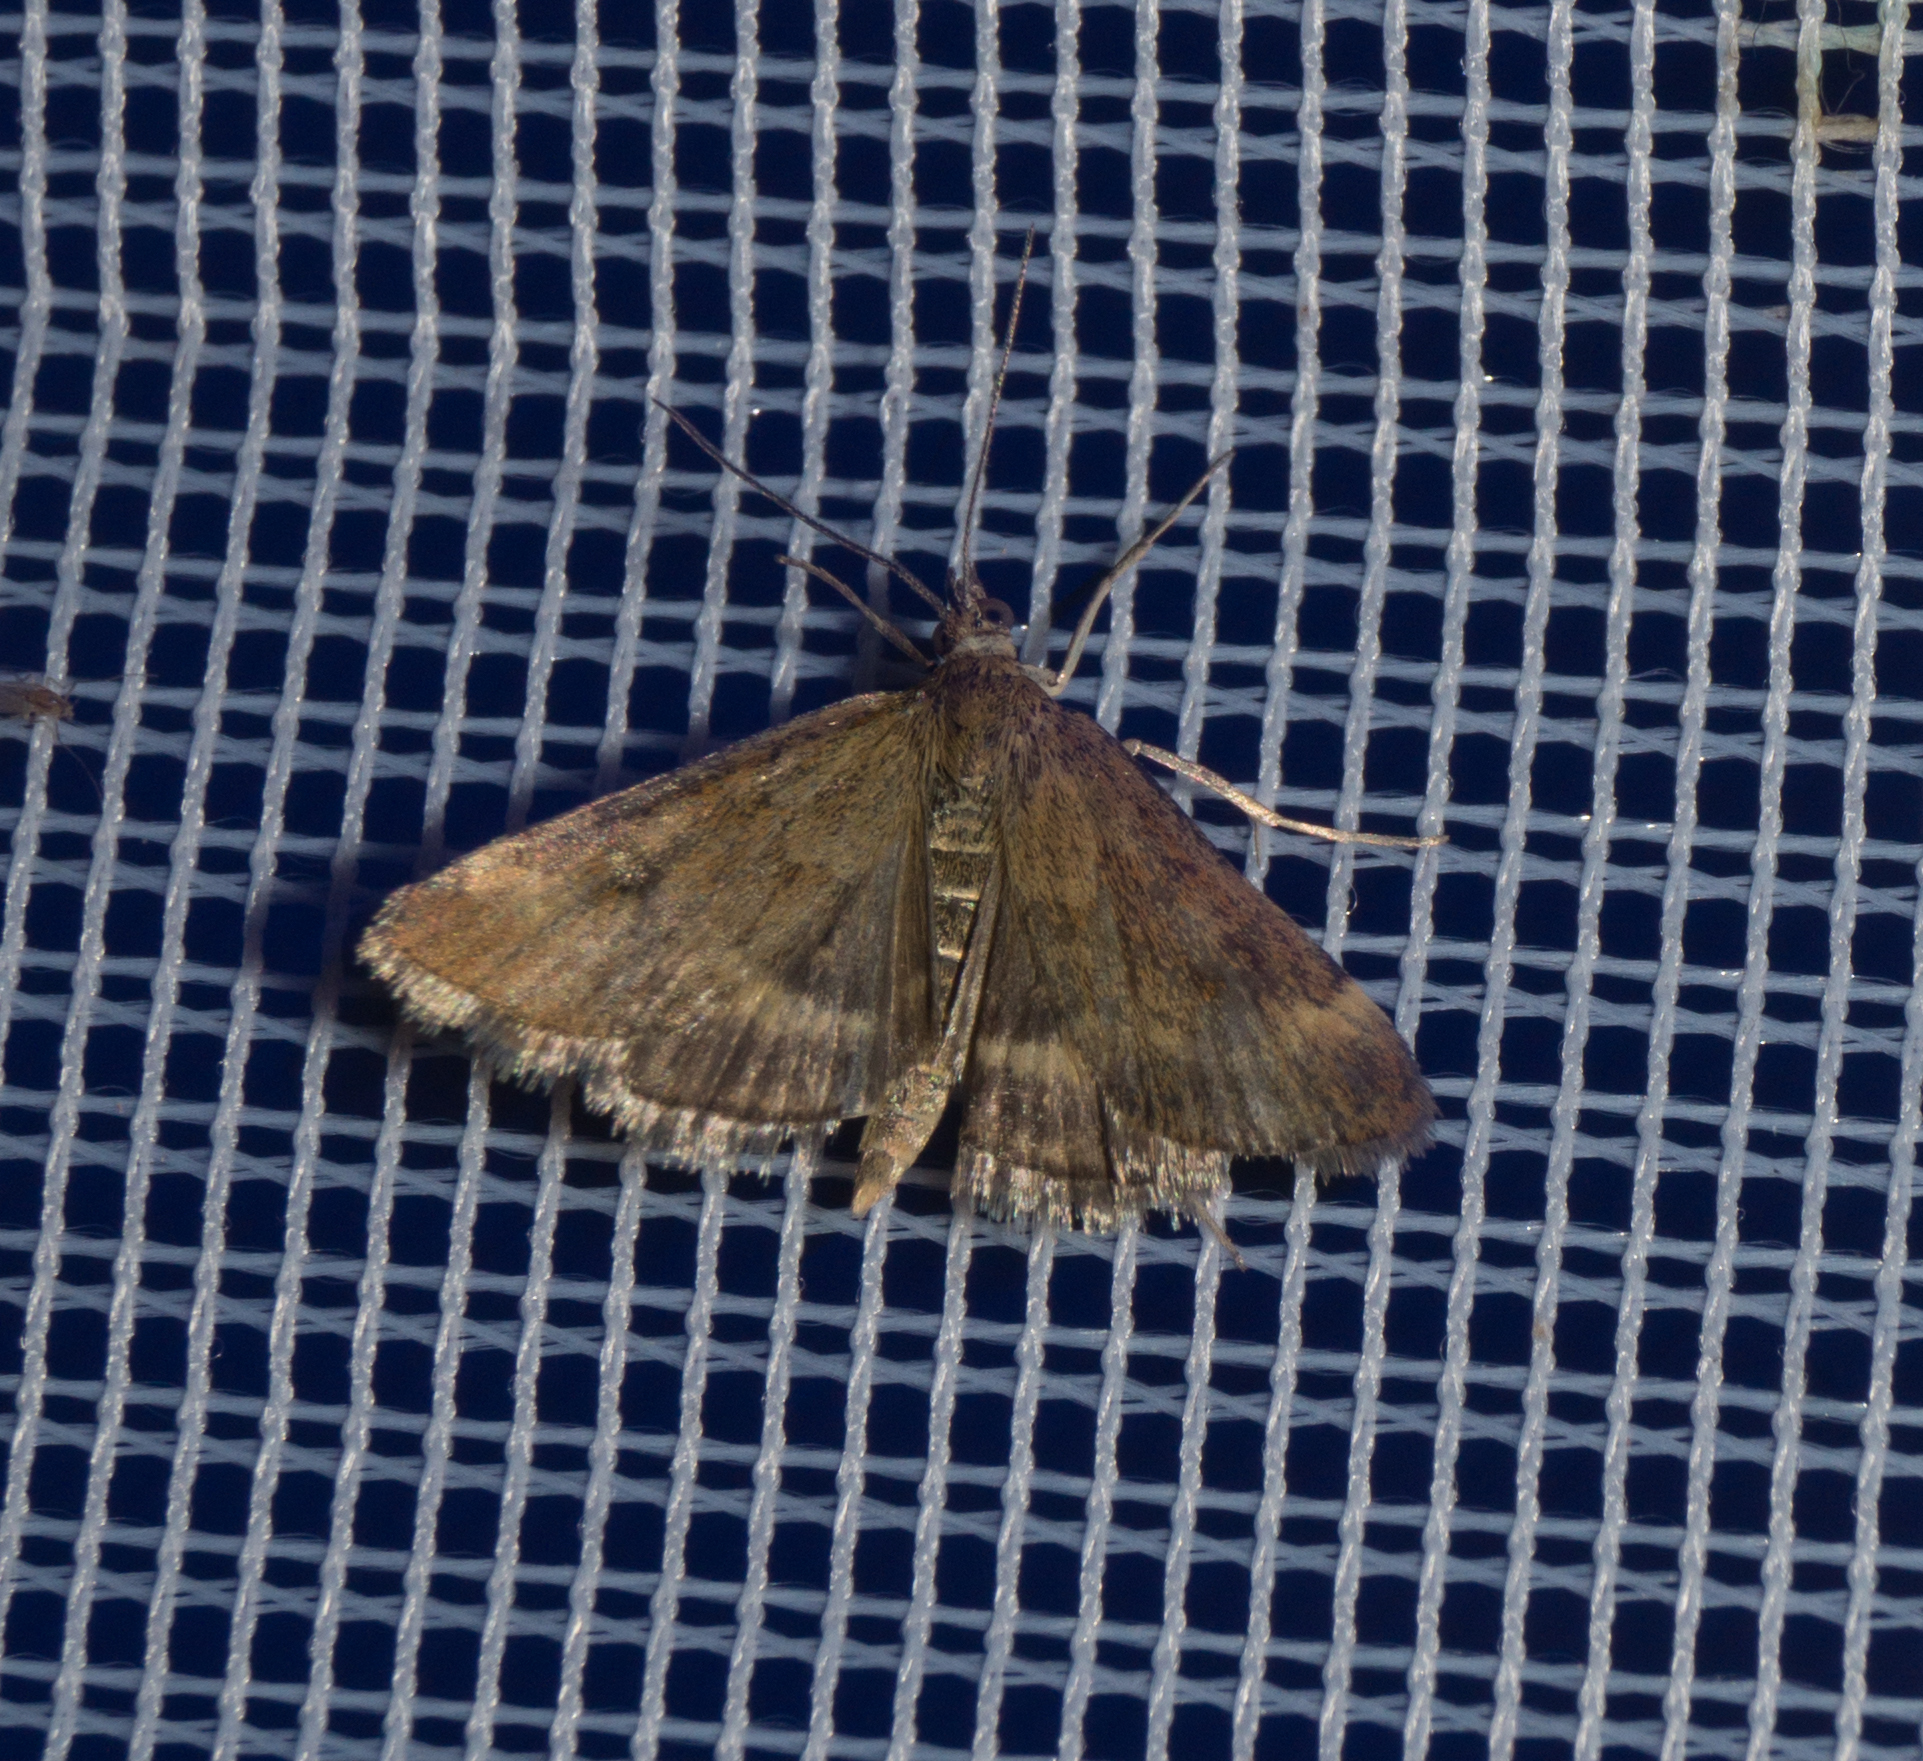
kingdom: Animalia
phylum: Arthropoda
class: Insecta
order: Lepidoptera
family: Crambidae
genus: Pyrausta
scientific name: Pyrausta despicata
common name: Straw-barred pearl
